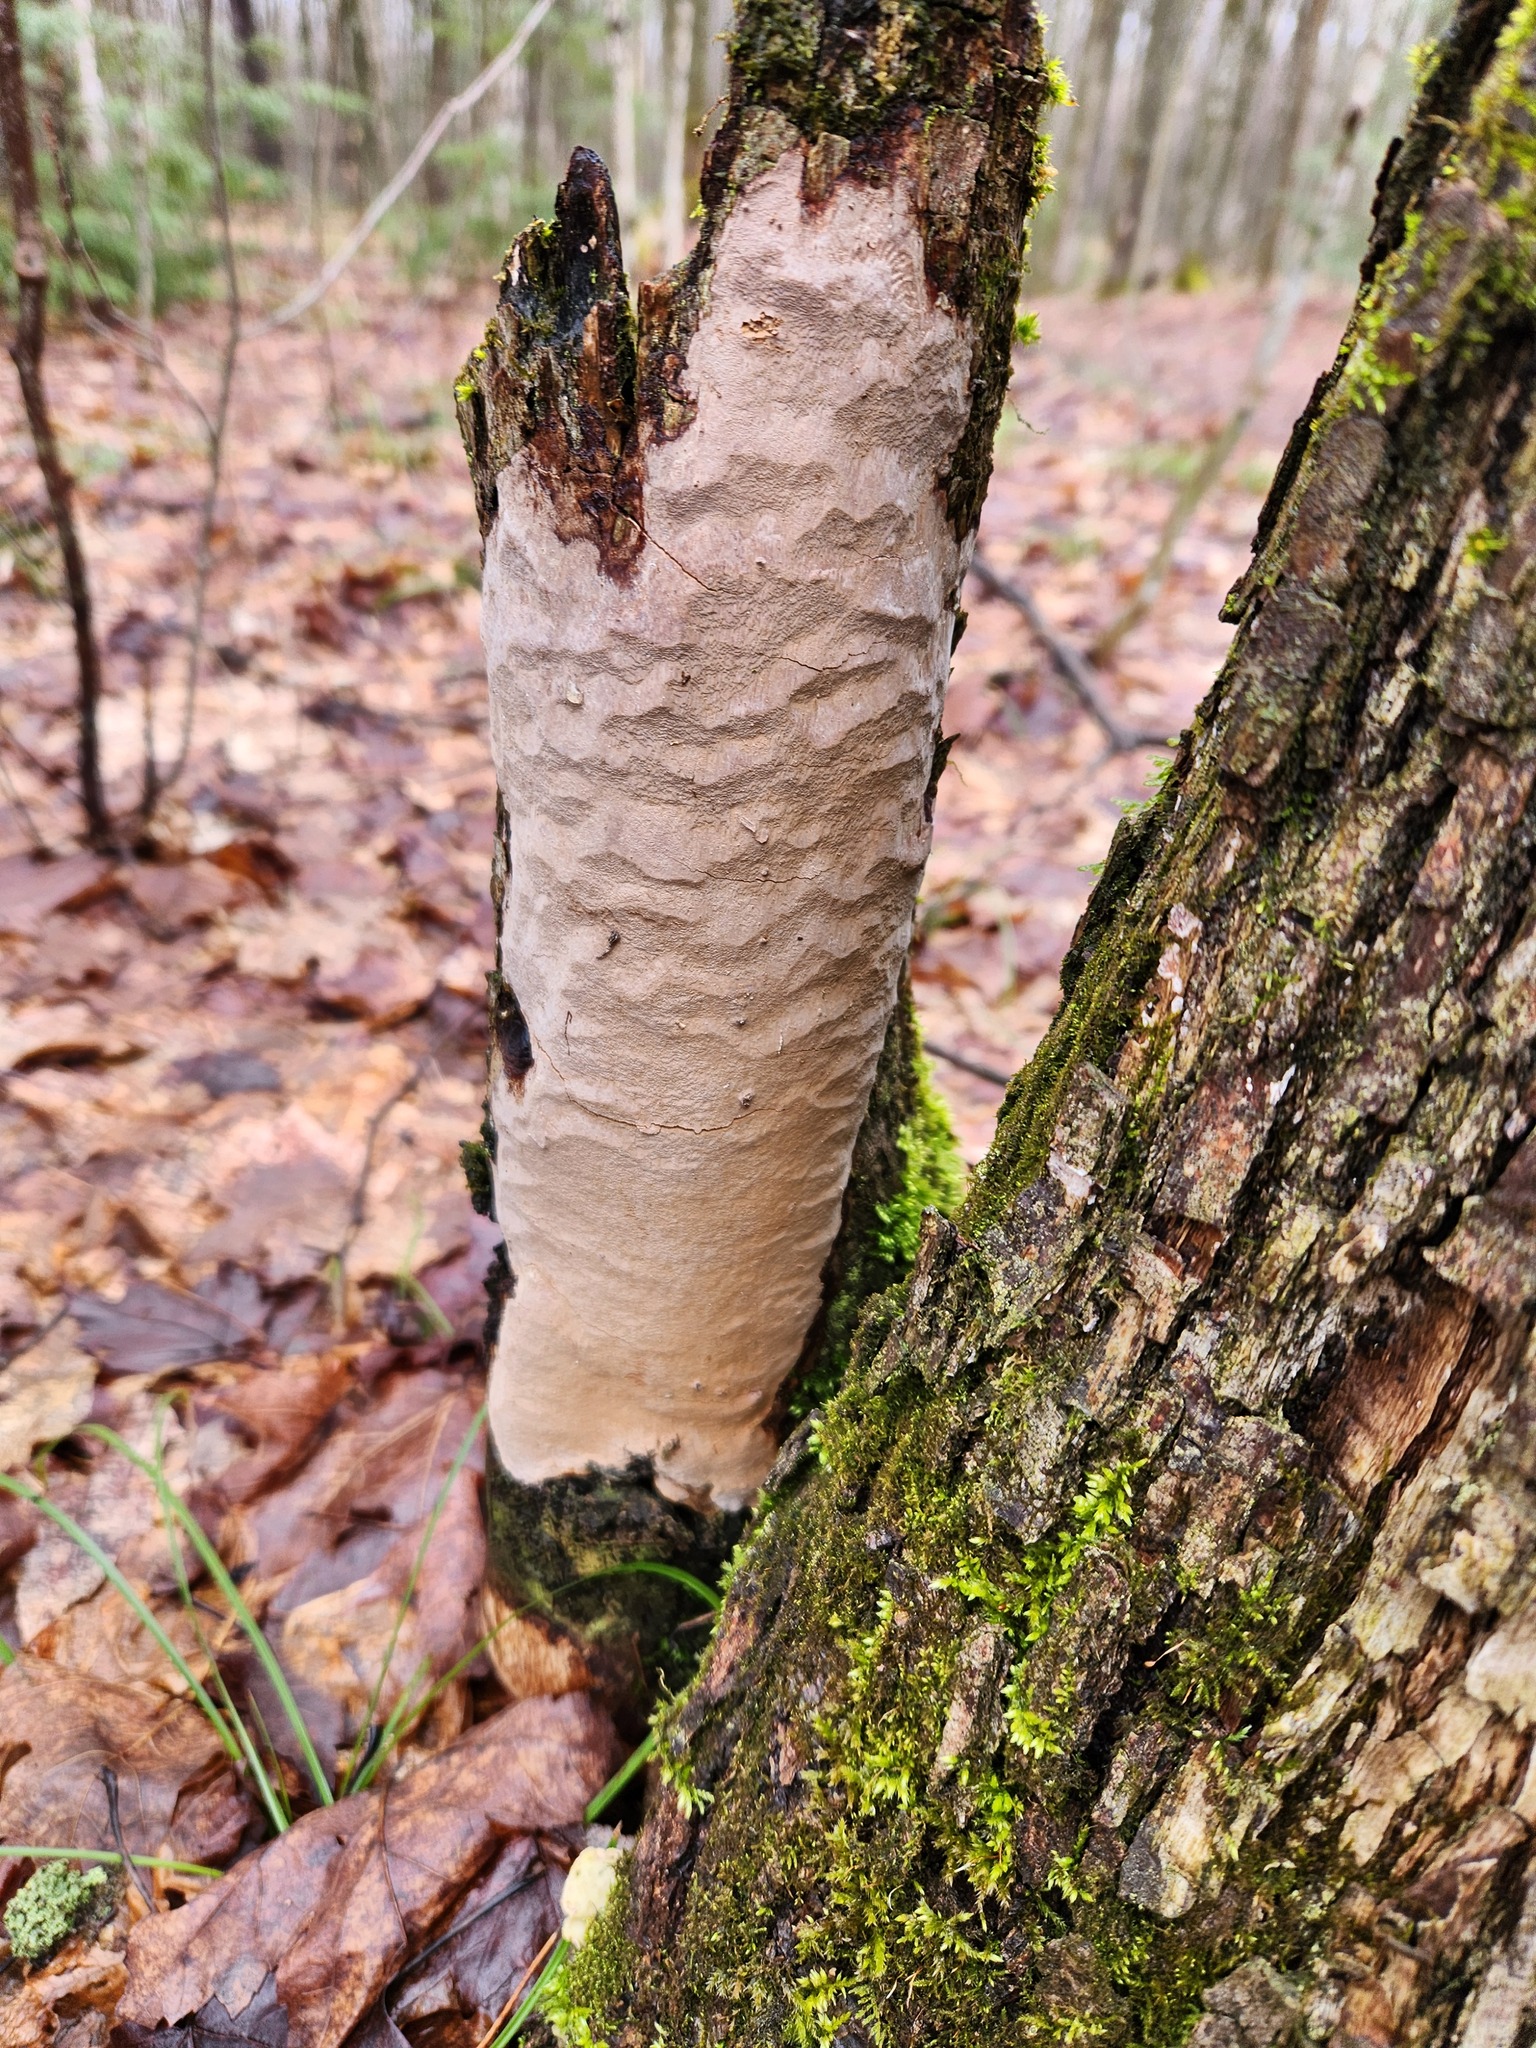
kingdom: Fungi
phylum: Basidiomycota
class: Agaricomycetes
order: Hymenochaetales
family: Hymenochaetaceae
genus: Fomitiporia
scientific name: Fomitiporia punctata
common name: Elbowpatch crust
